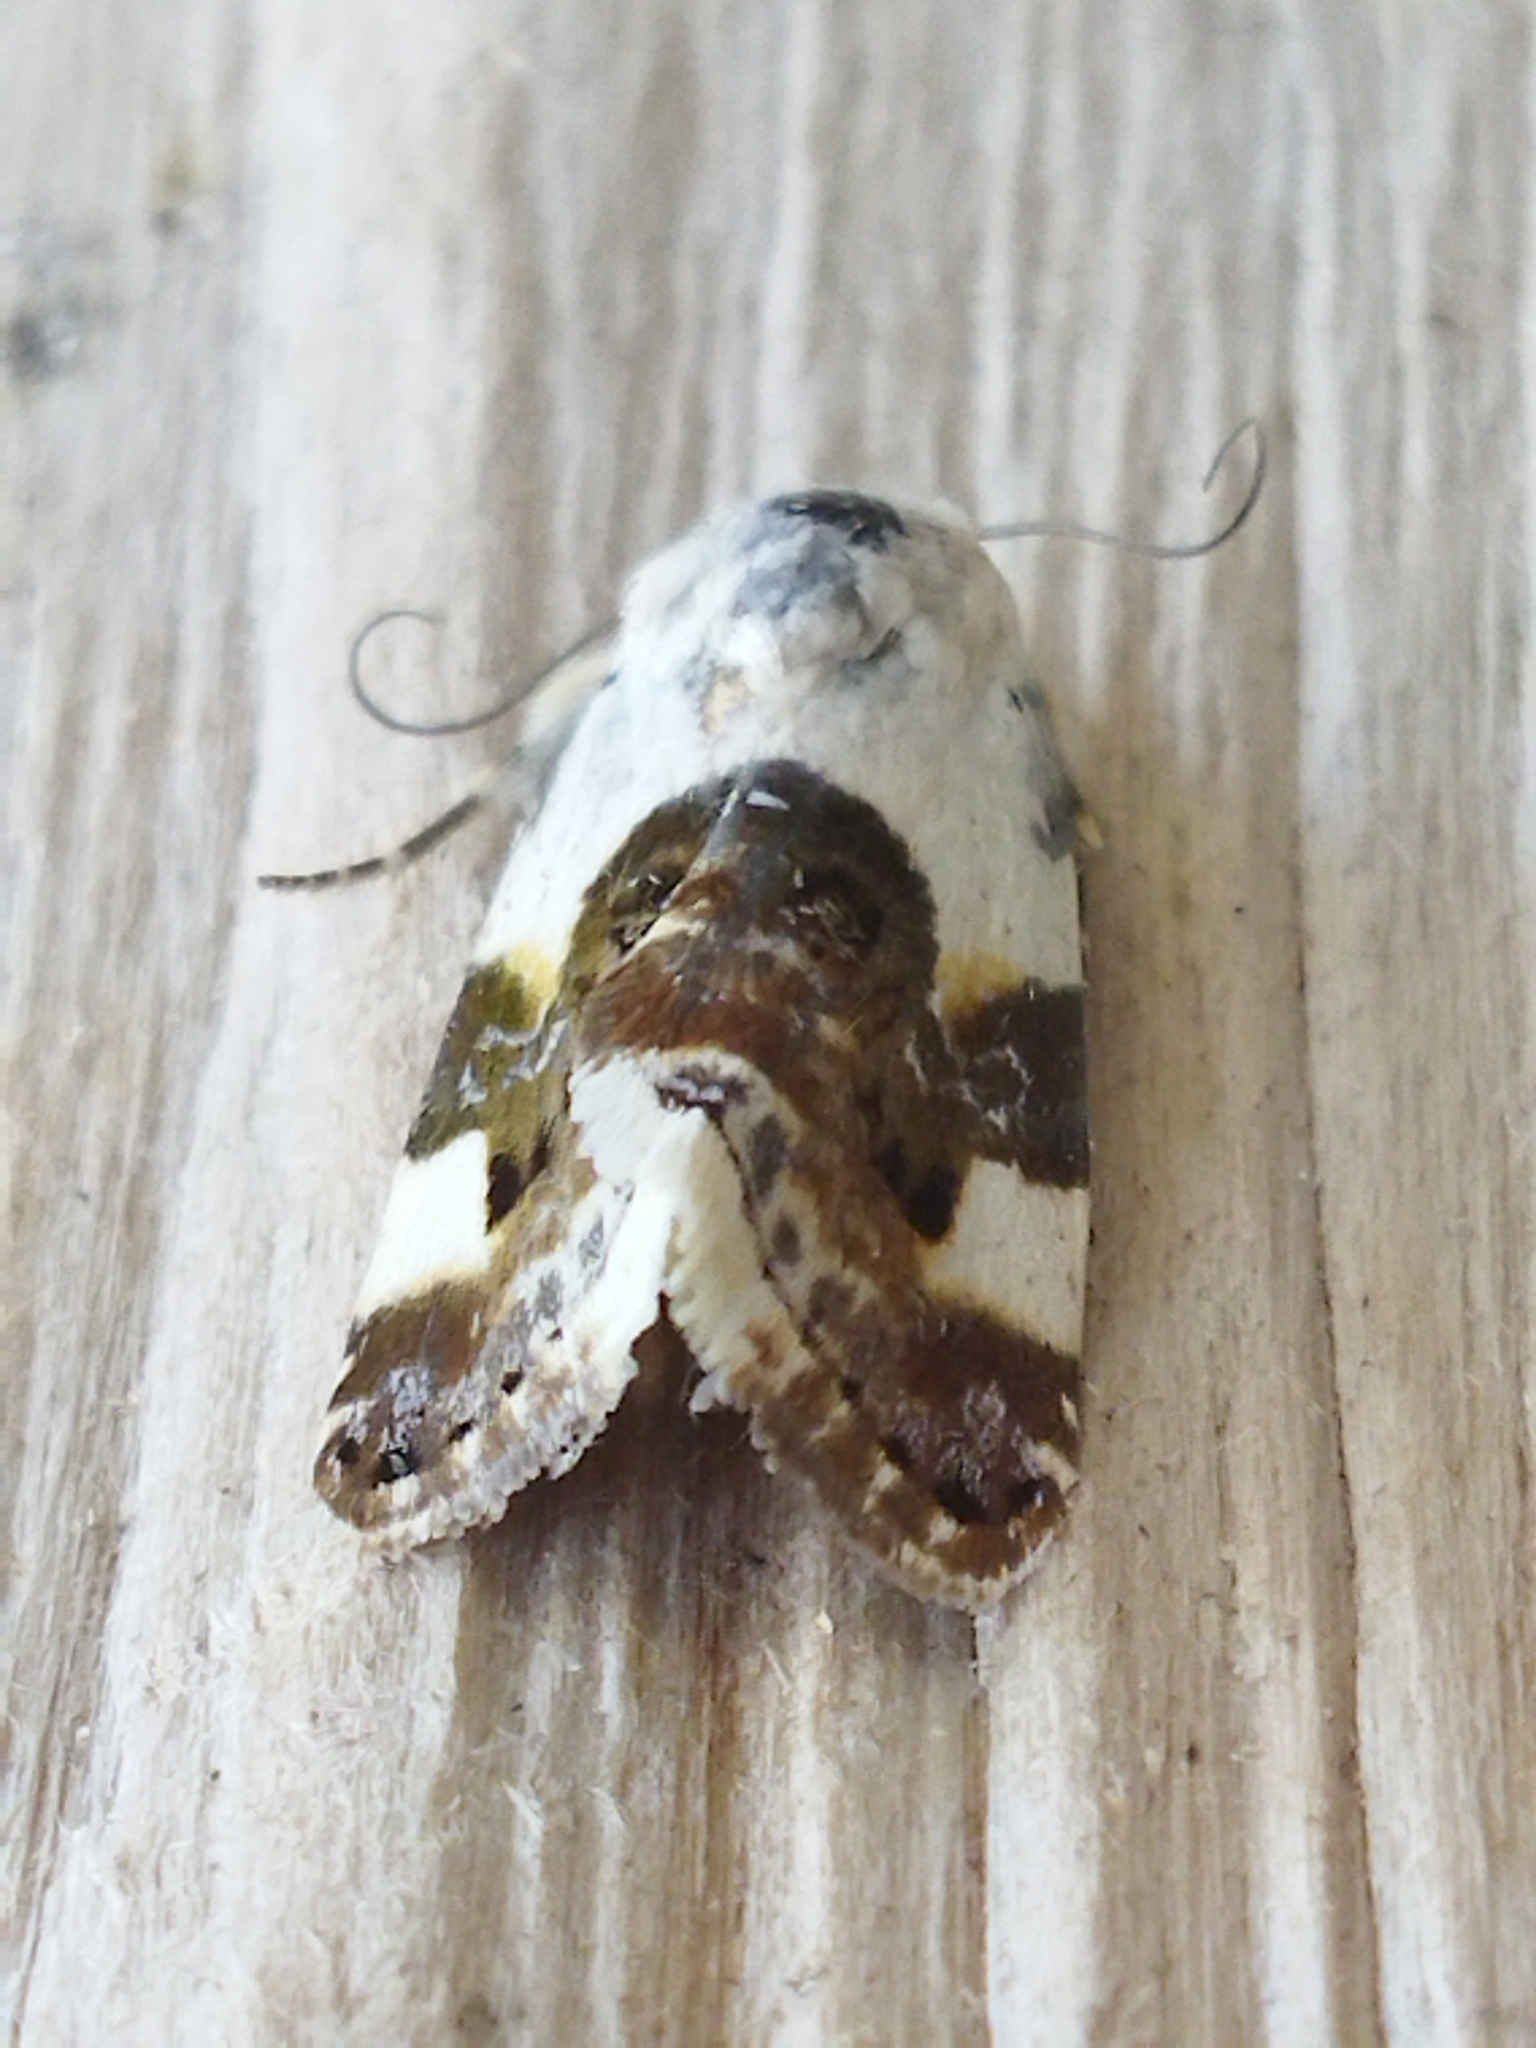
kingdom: Animalia
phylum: Arthropoda
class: Insecta
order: Lepidoptera
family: Noctuidae
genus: Acontia
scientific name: Acontia lucida
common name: Pale shoulder
